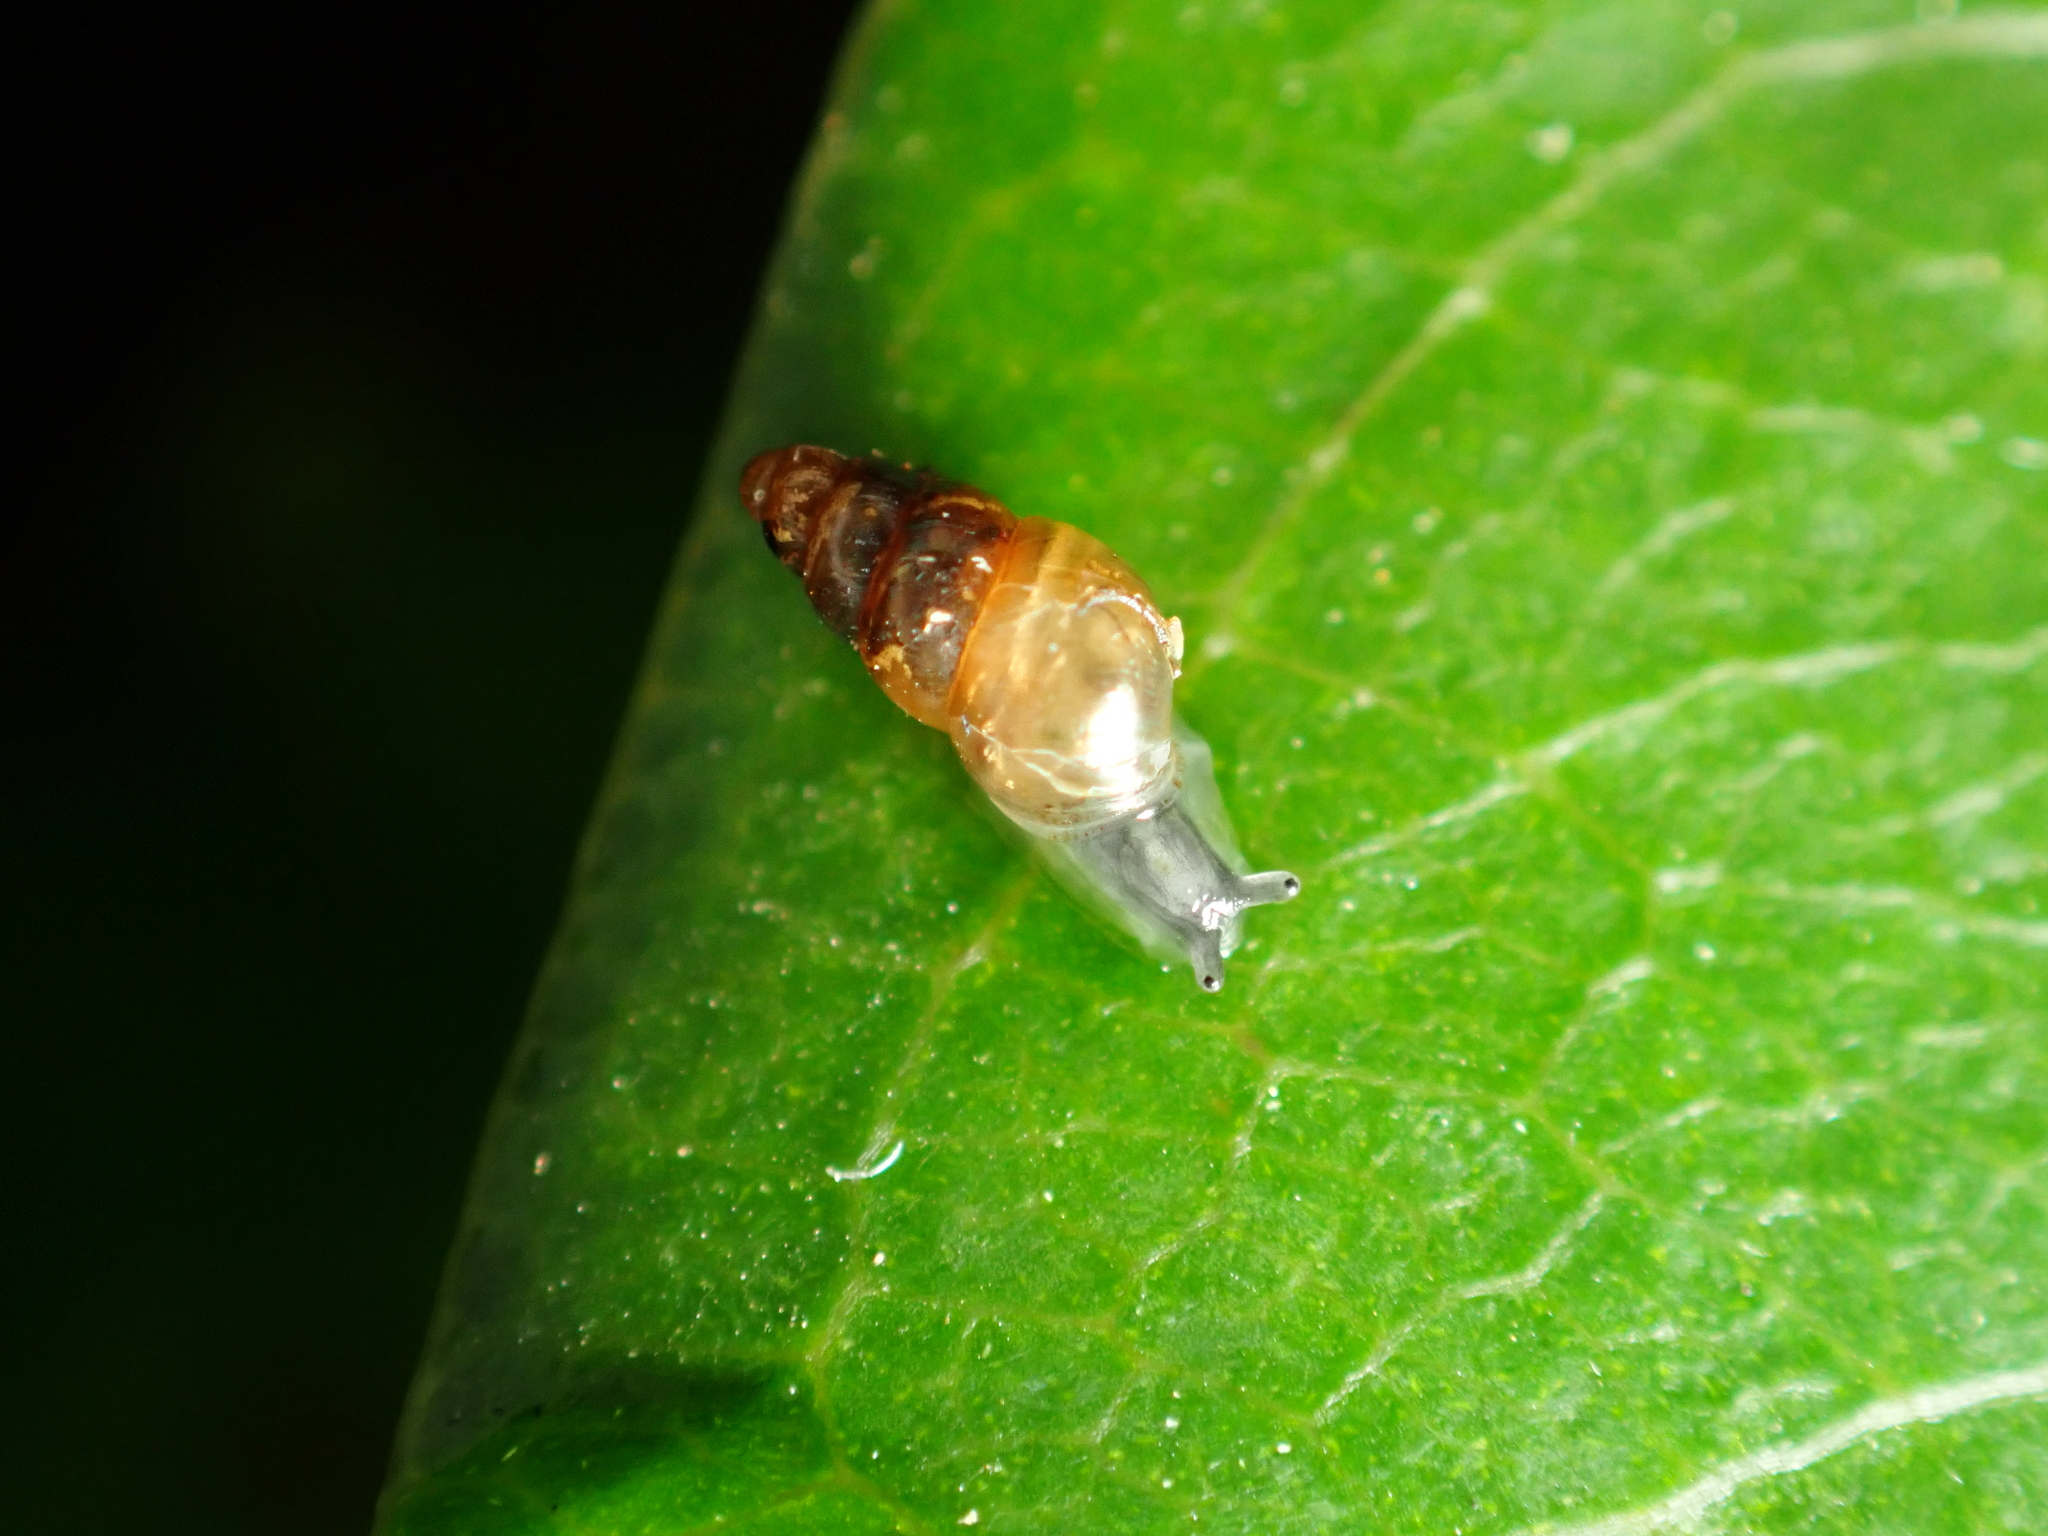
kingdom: Animalia
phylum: Mollusca
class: Gastropoda
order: Stylommatophora
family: Achatinellidae
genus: Tornatellinops
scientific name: Tornatellinops novoseelandicus
